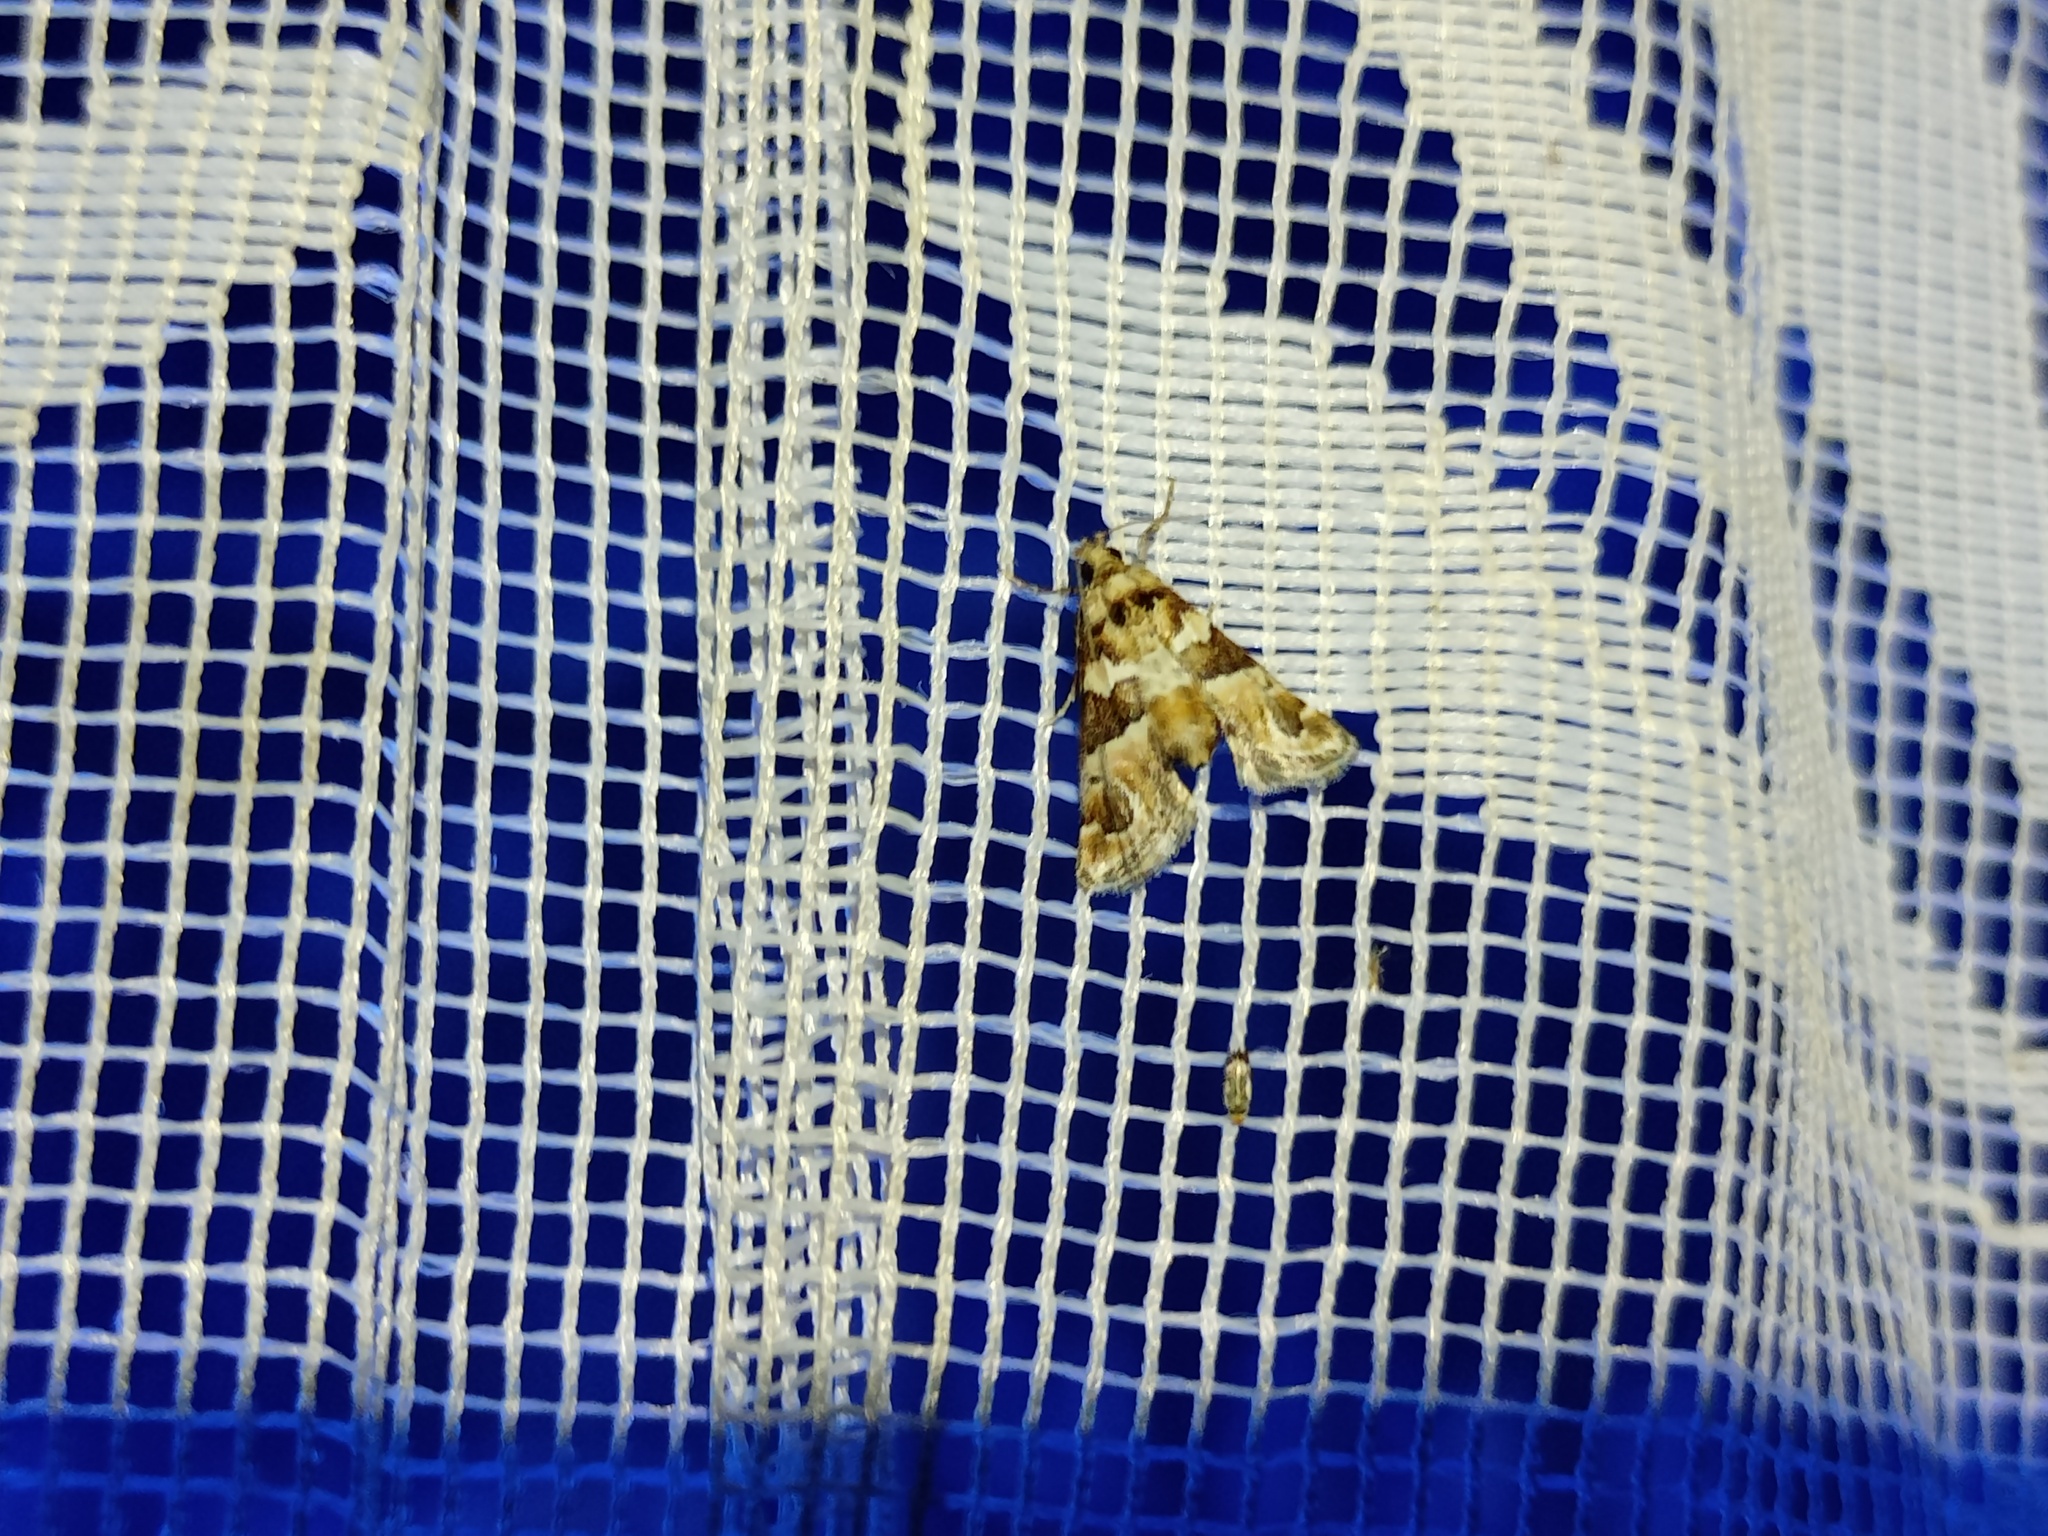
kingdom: Animalia
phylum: Arthropoda
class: Insecta
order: Lepidoptera
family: Pyralidae
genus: Hypotia
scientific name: Hypotia corticalis
